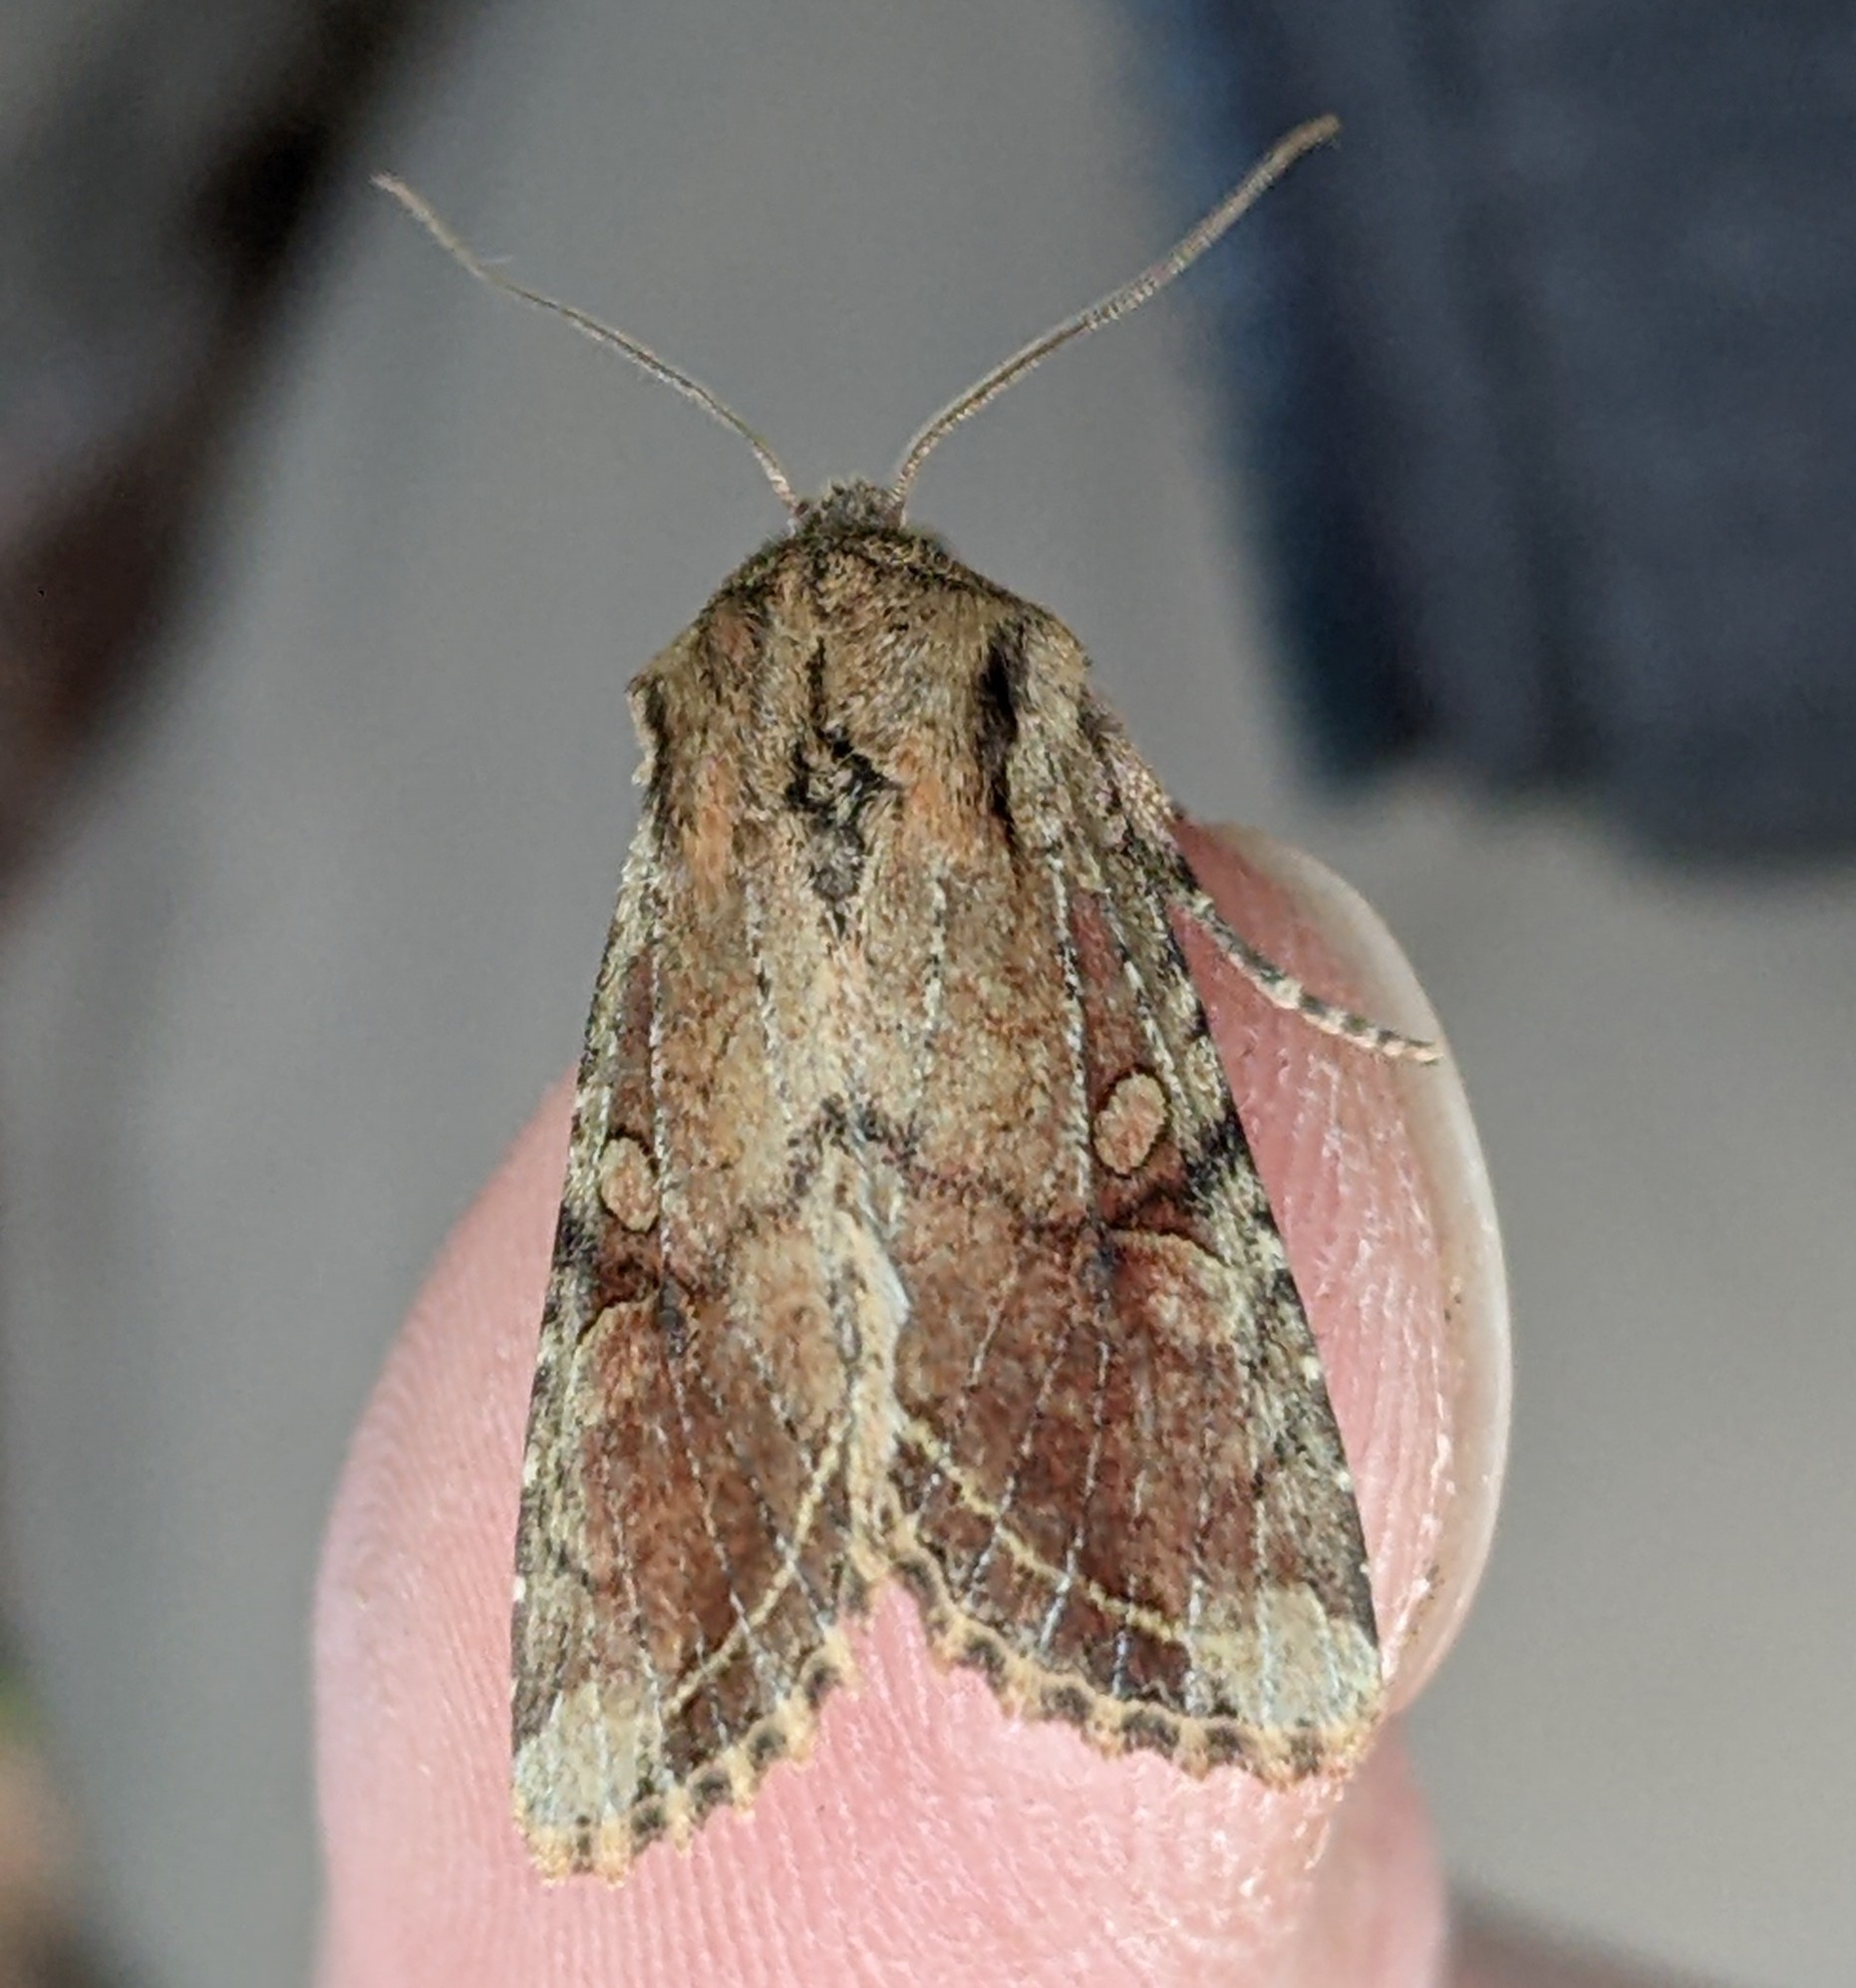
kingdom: Animalia
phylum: Arthropoda
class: Insecta
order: Lepidoptera
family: Noctuidae
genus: Egira
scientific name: Egira rubrica
